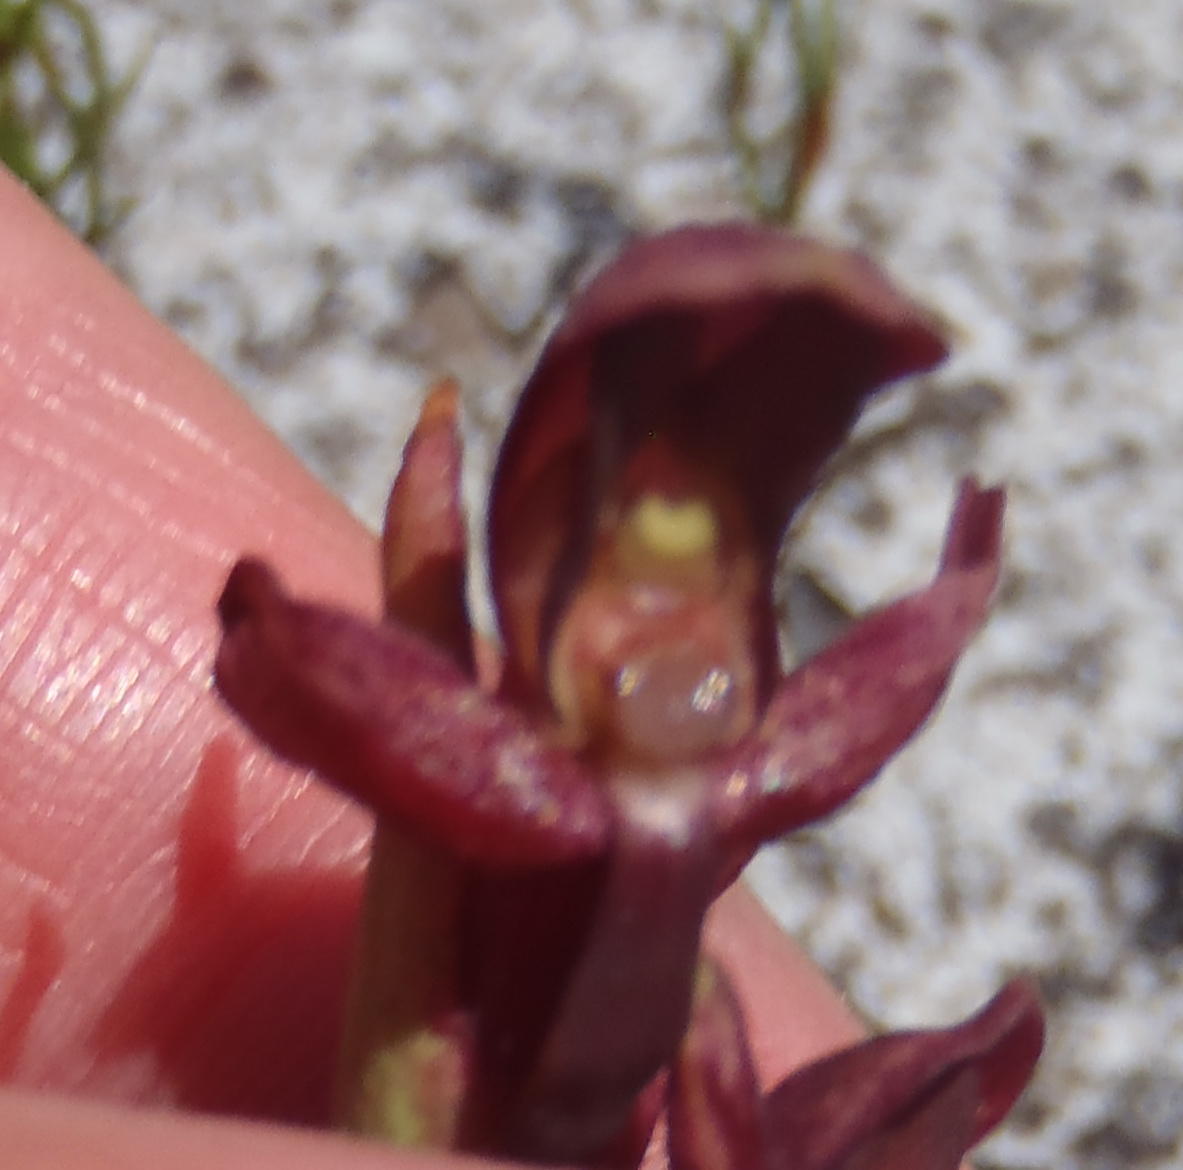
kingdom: Plantae
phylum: Tracheophyta
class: Liliopsida
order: Asparagales
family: Orchidaceae
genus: Disa
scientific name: Disa ophrydea
